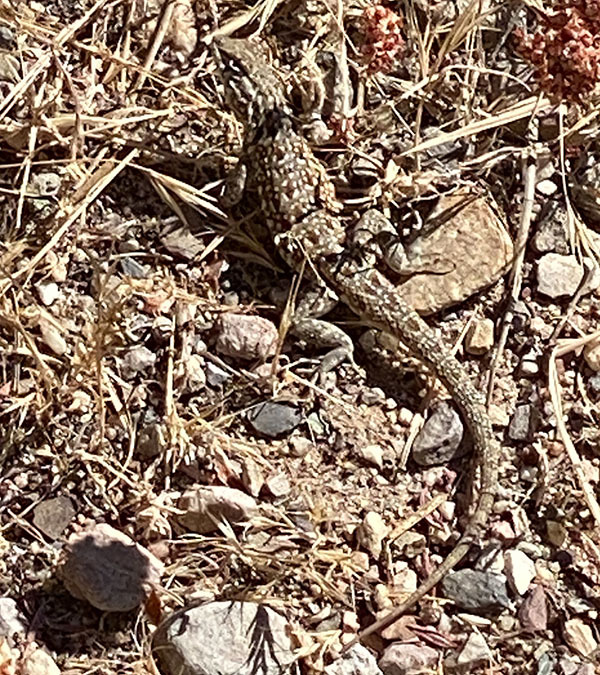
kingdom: Animalia
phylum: Chordata
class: Squamata
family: Phrynosomatidae
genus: Uta
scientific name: Uta stansburiana
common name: Side-blotched lizard
